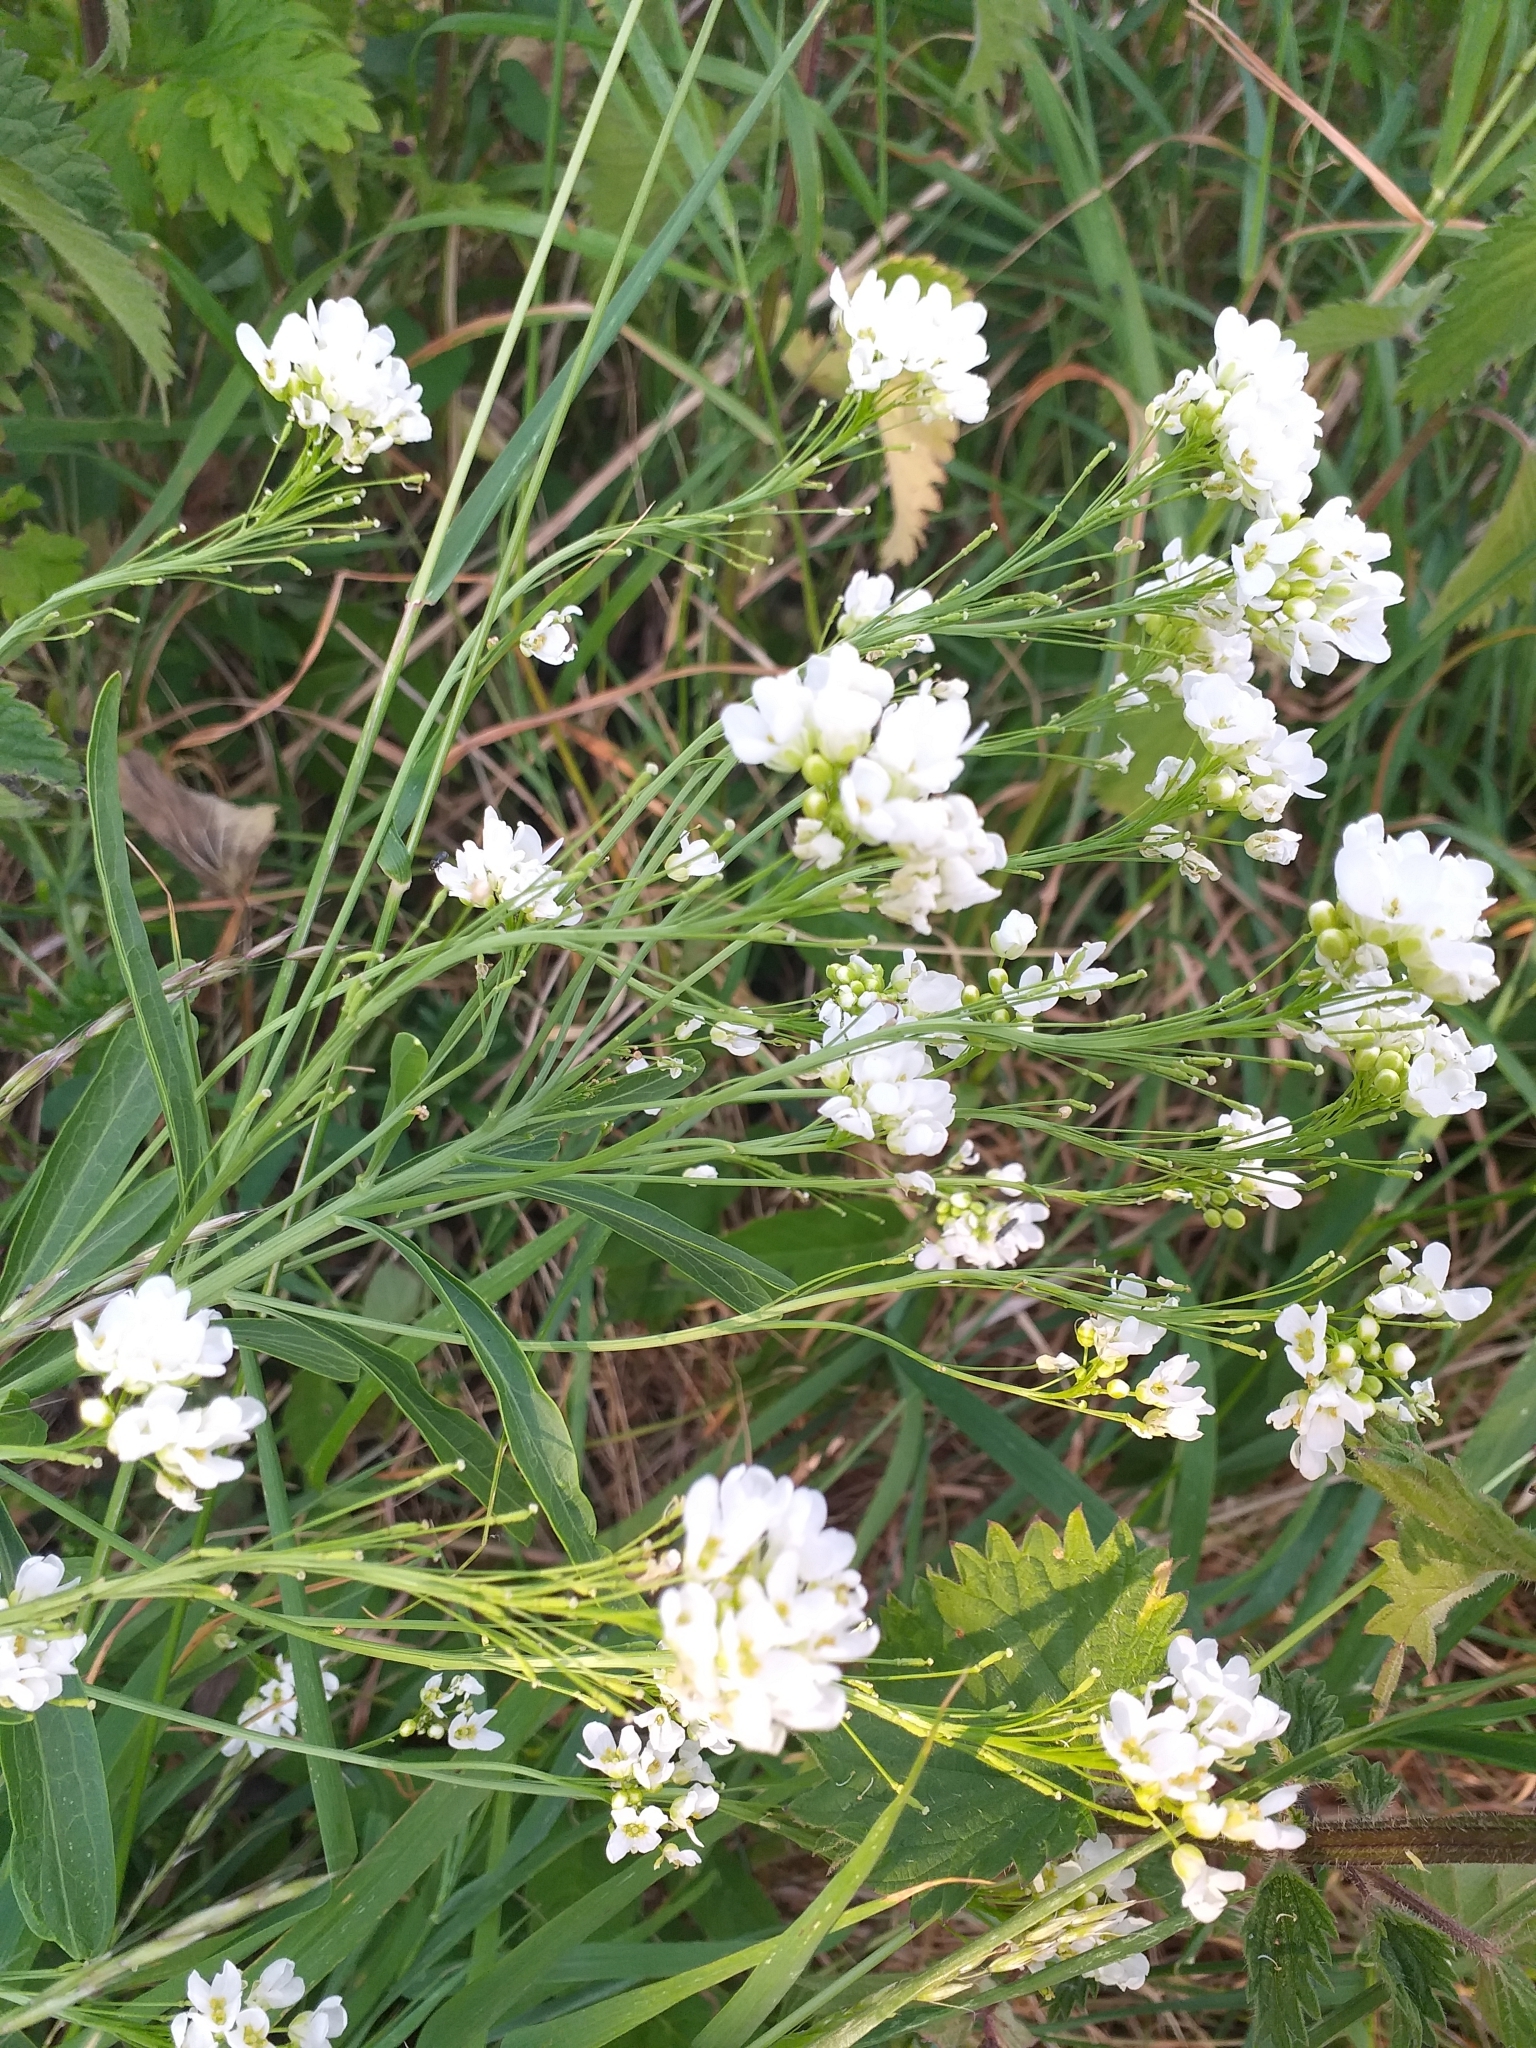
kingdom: Plantae
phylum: Tracheophyta
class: Magnoliopsida
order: Brassicales
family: Brassicaceae
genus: Armoracia
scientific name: Armoracia rusticana
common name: Horseradish
